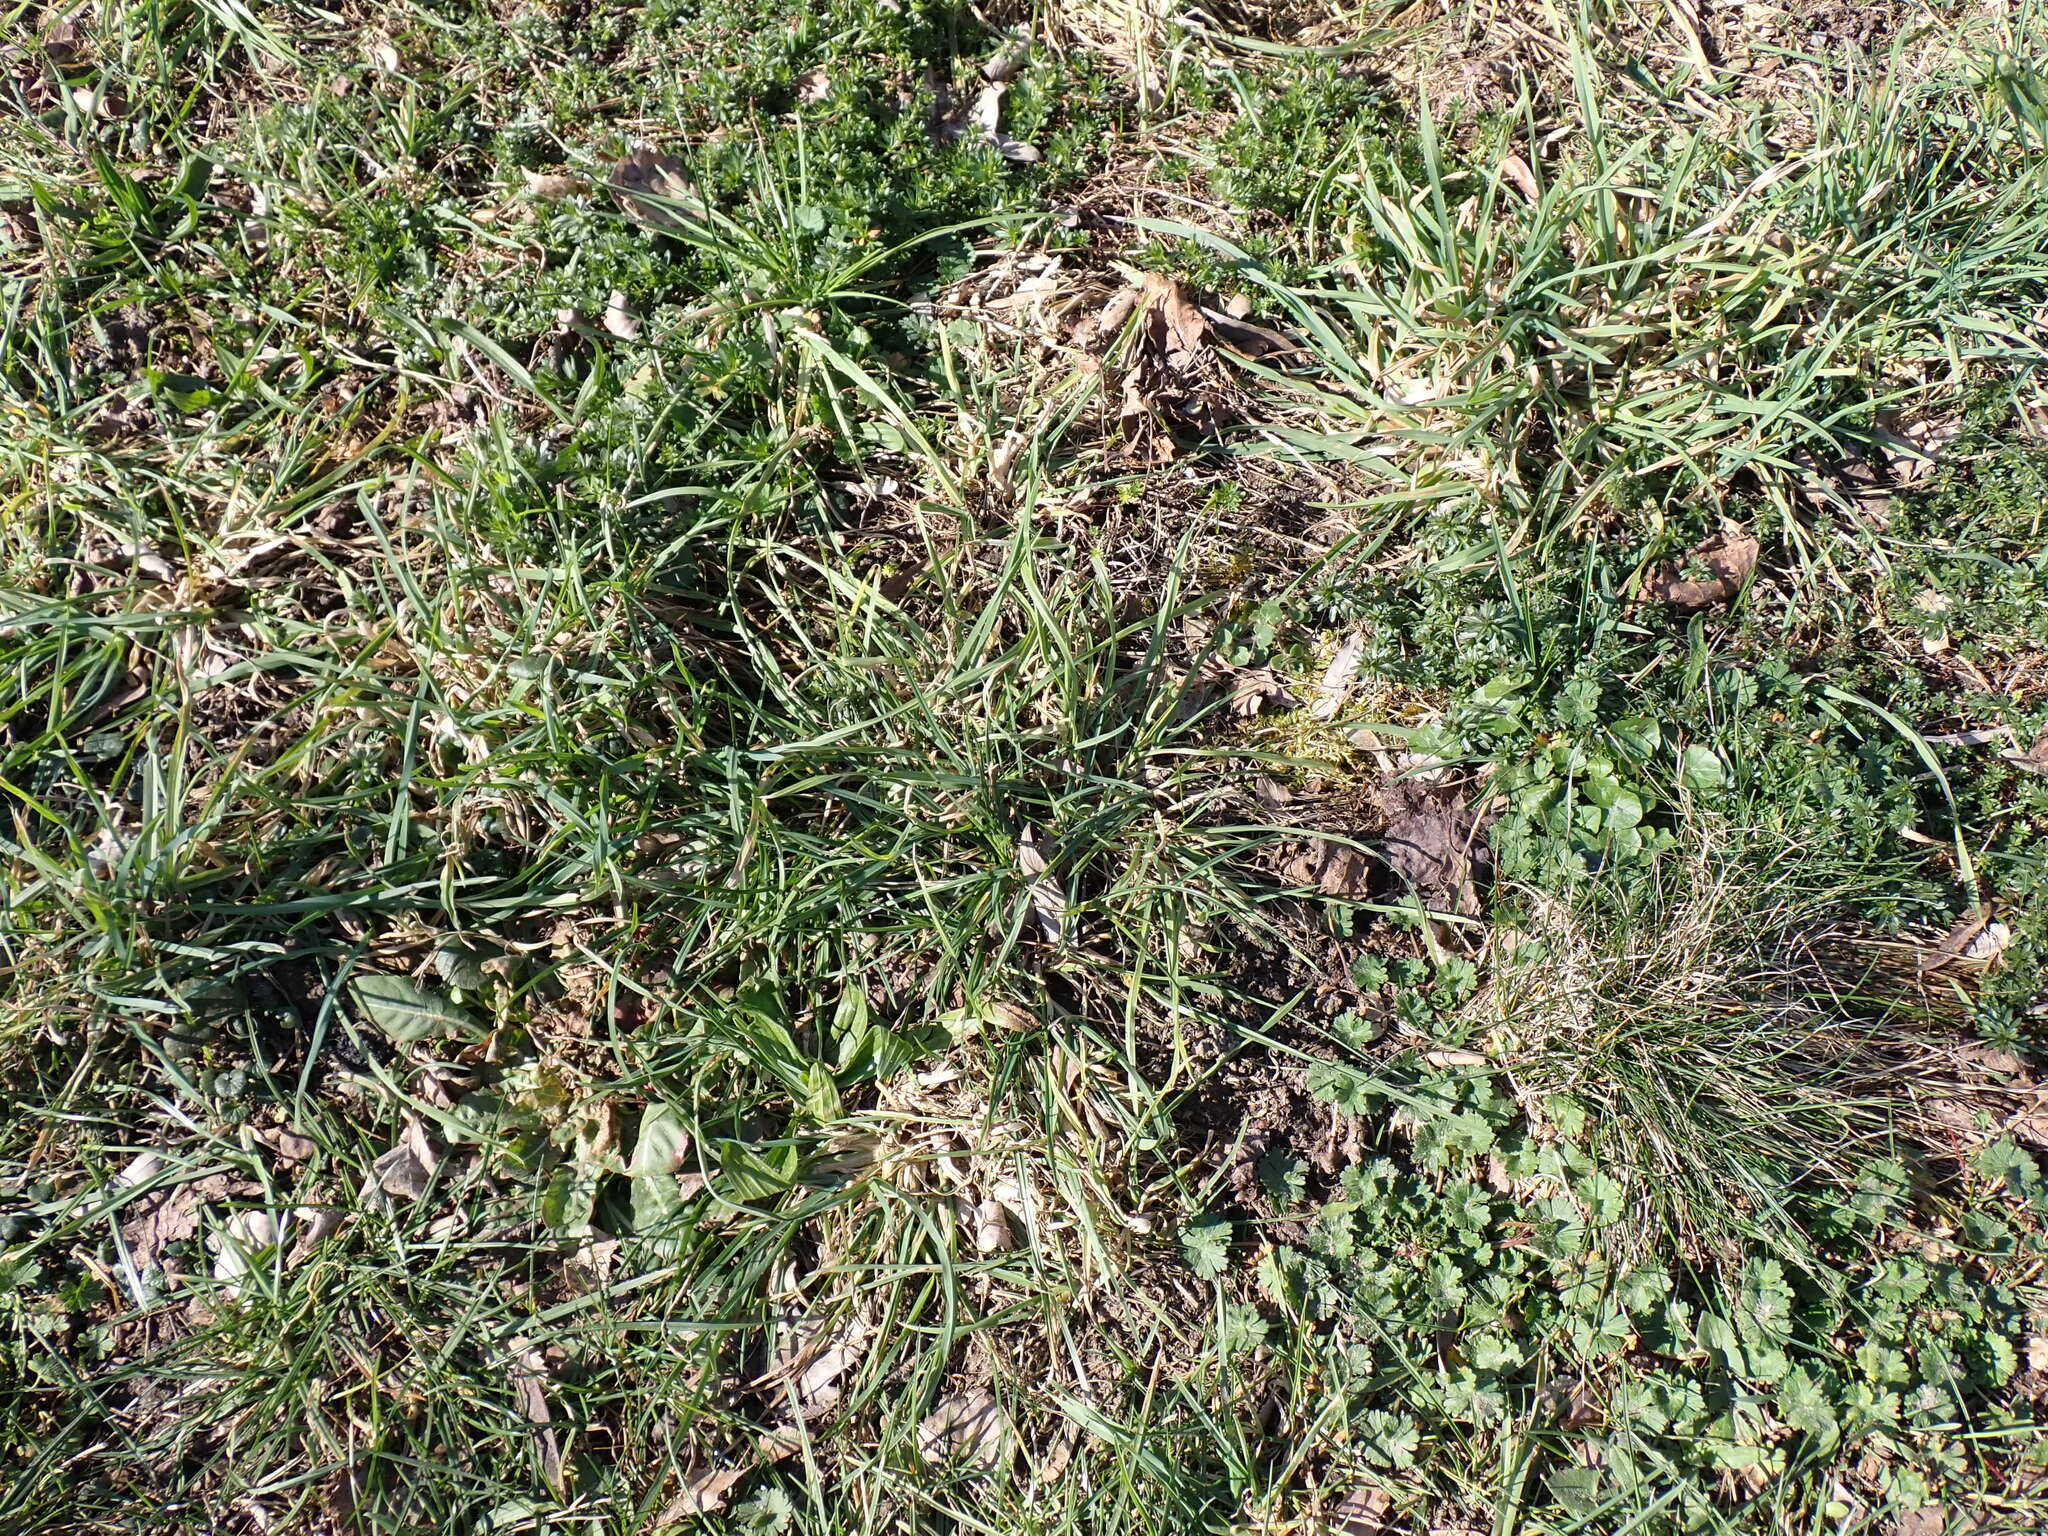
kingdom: Animalia
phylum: Arthropoda
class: Insecta
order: Hemiptera
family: Delphacidae
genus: Stenocranus
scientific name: Stenocranus minutus
